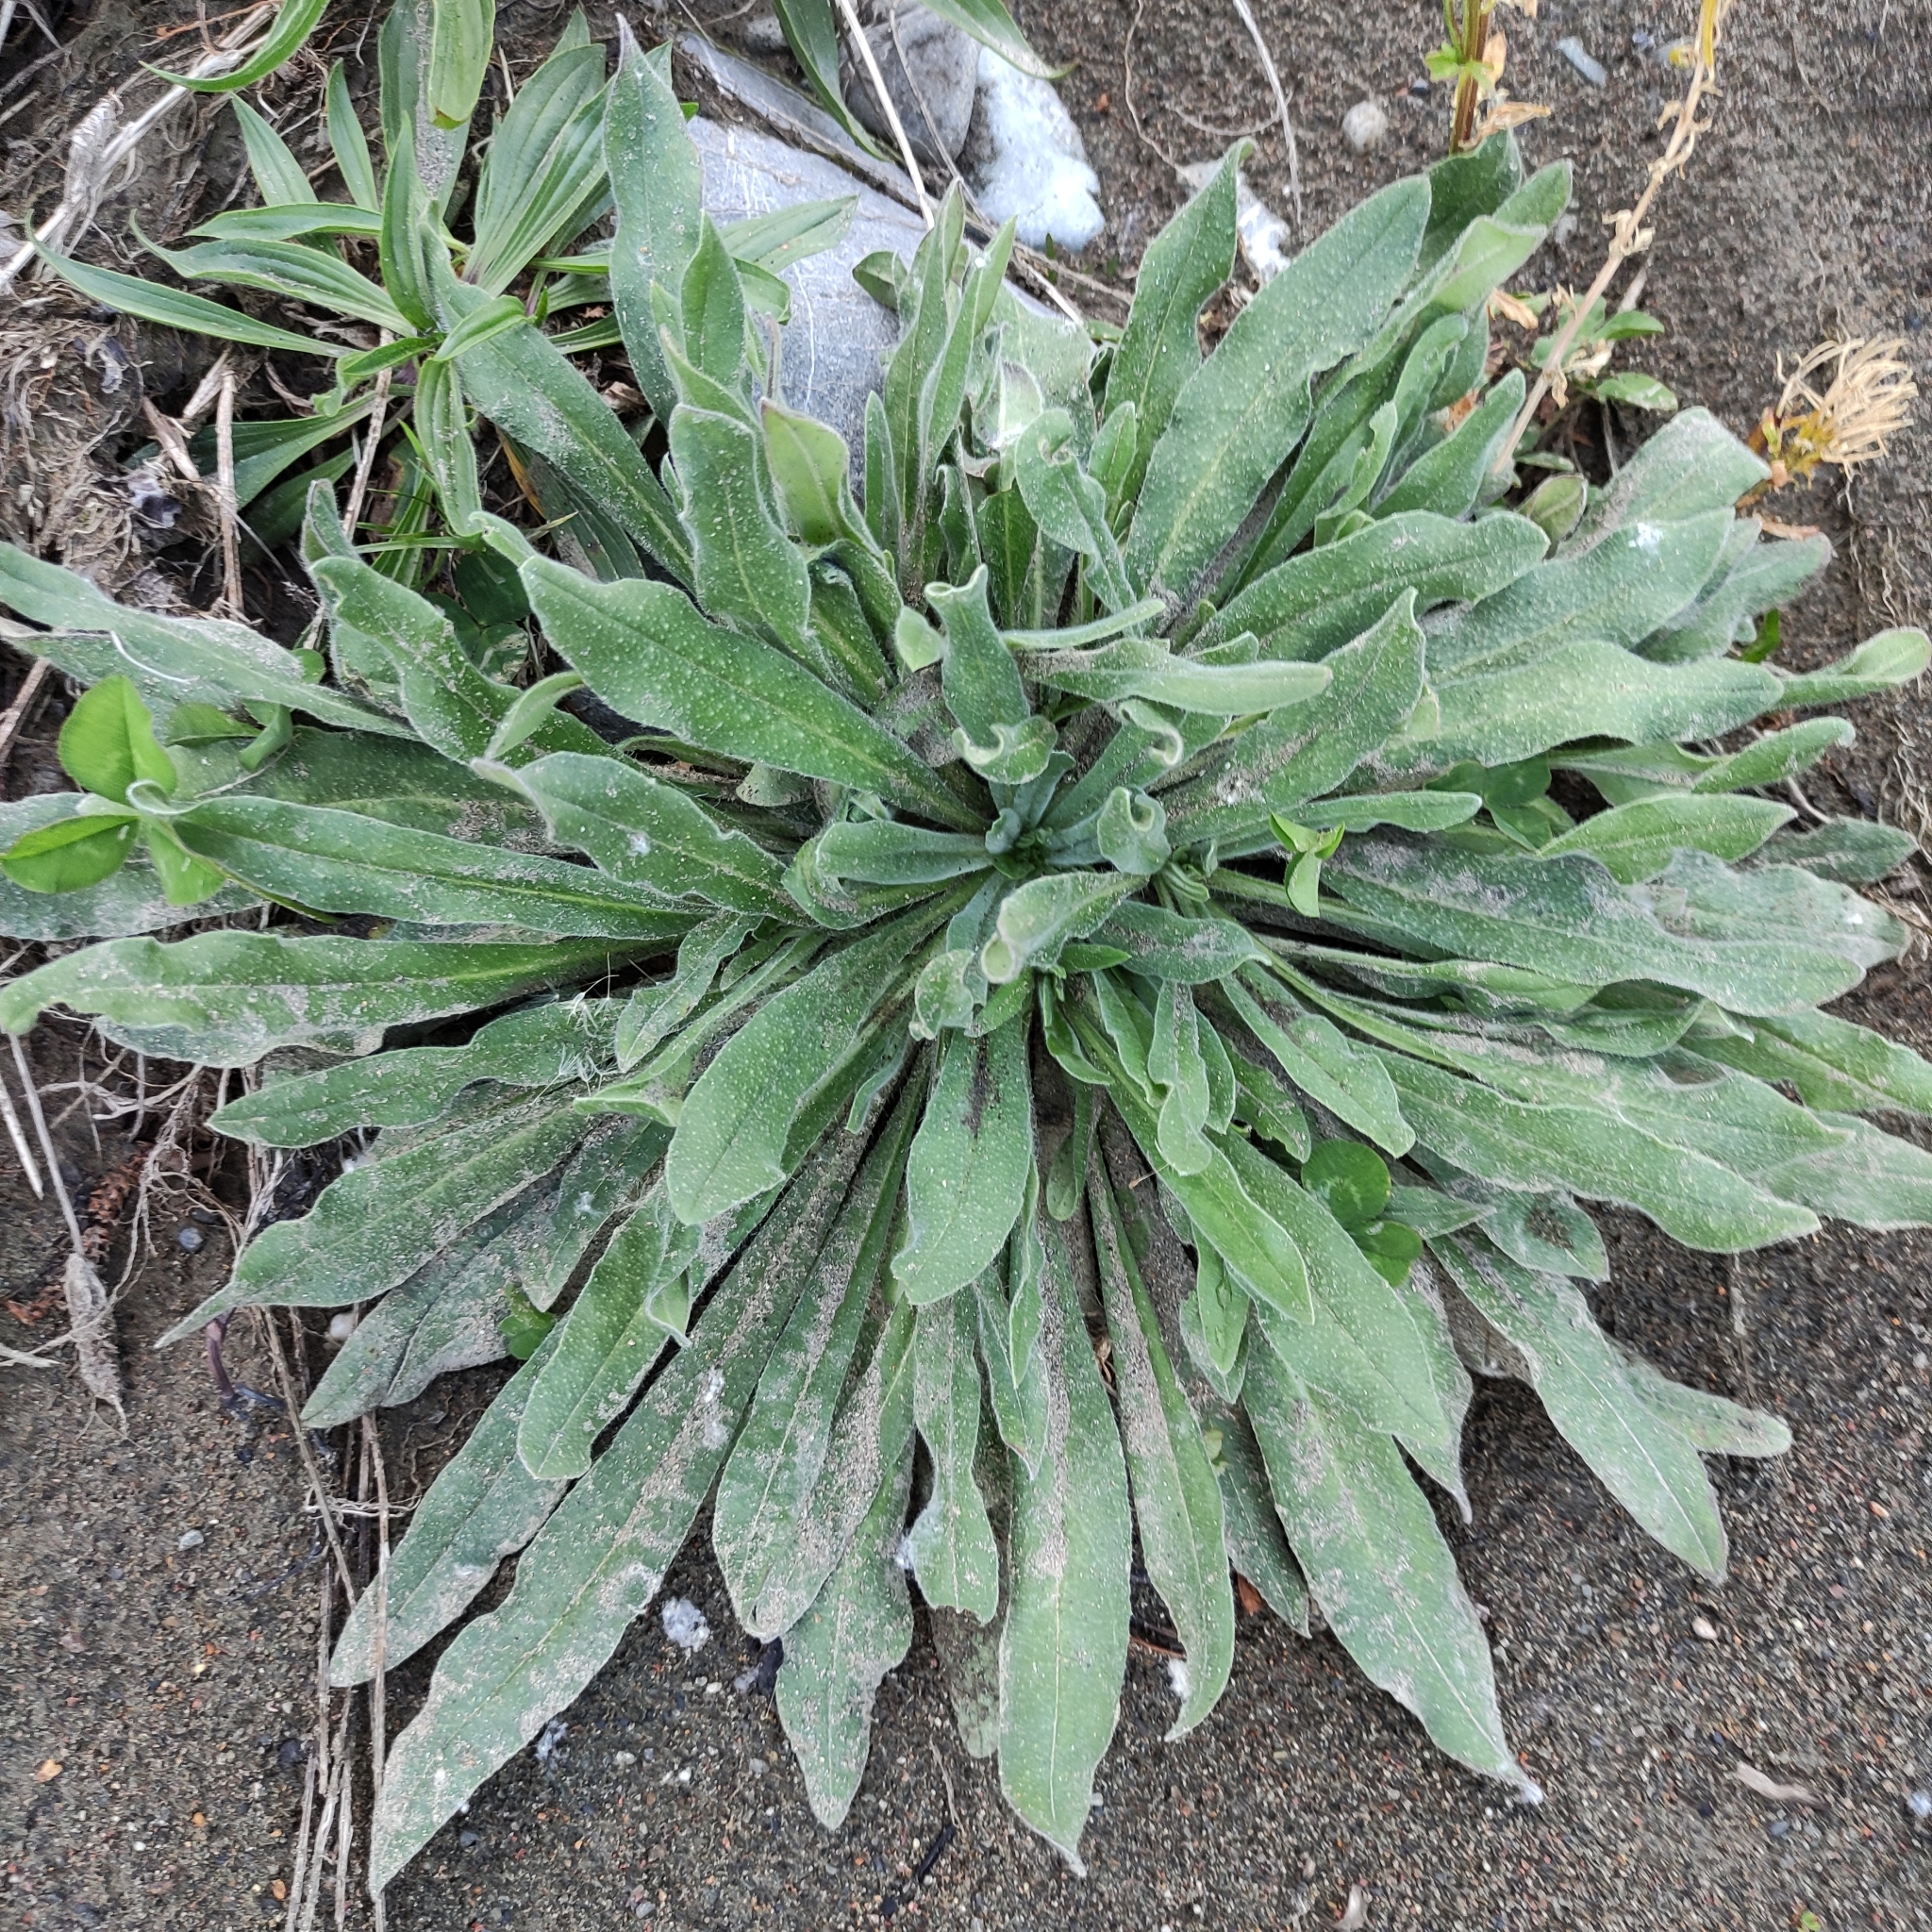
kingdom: Plantae
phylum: Tracheophyta
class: Magnoliopsida
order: Boraginales
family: Boraginaceae
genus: Echium
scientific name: Echium vulgare
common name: Common viper's bugloss
